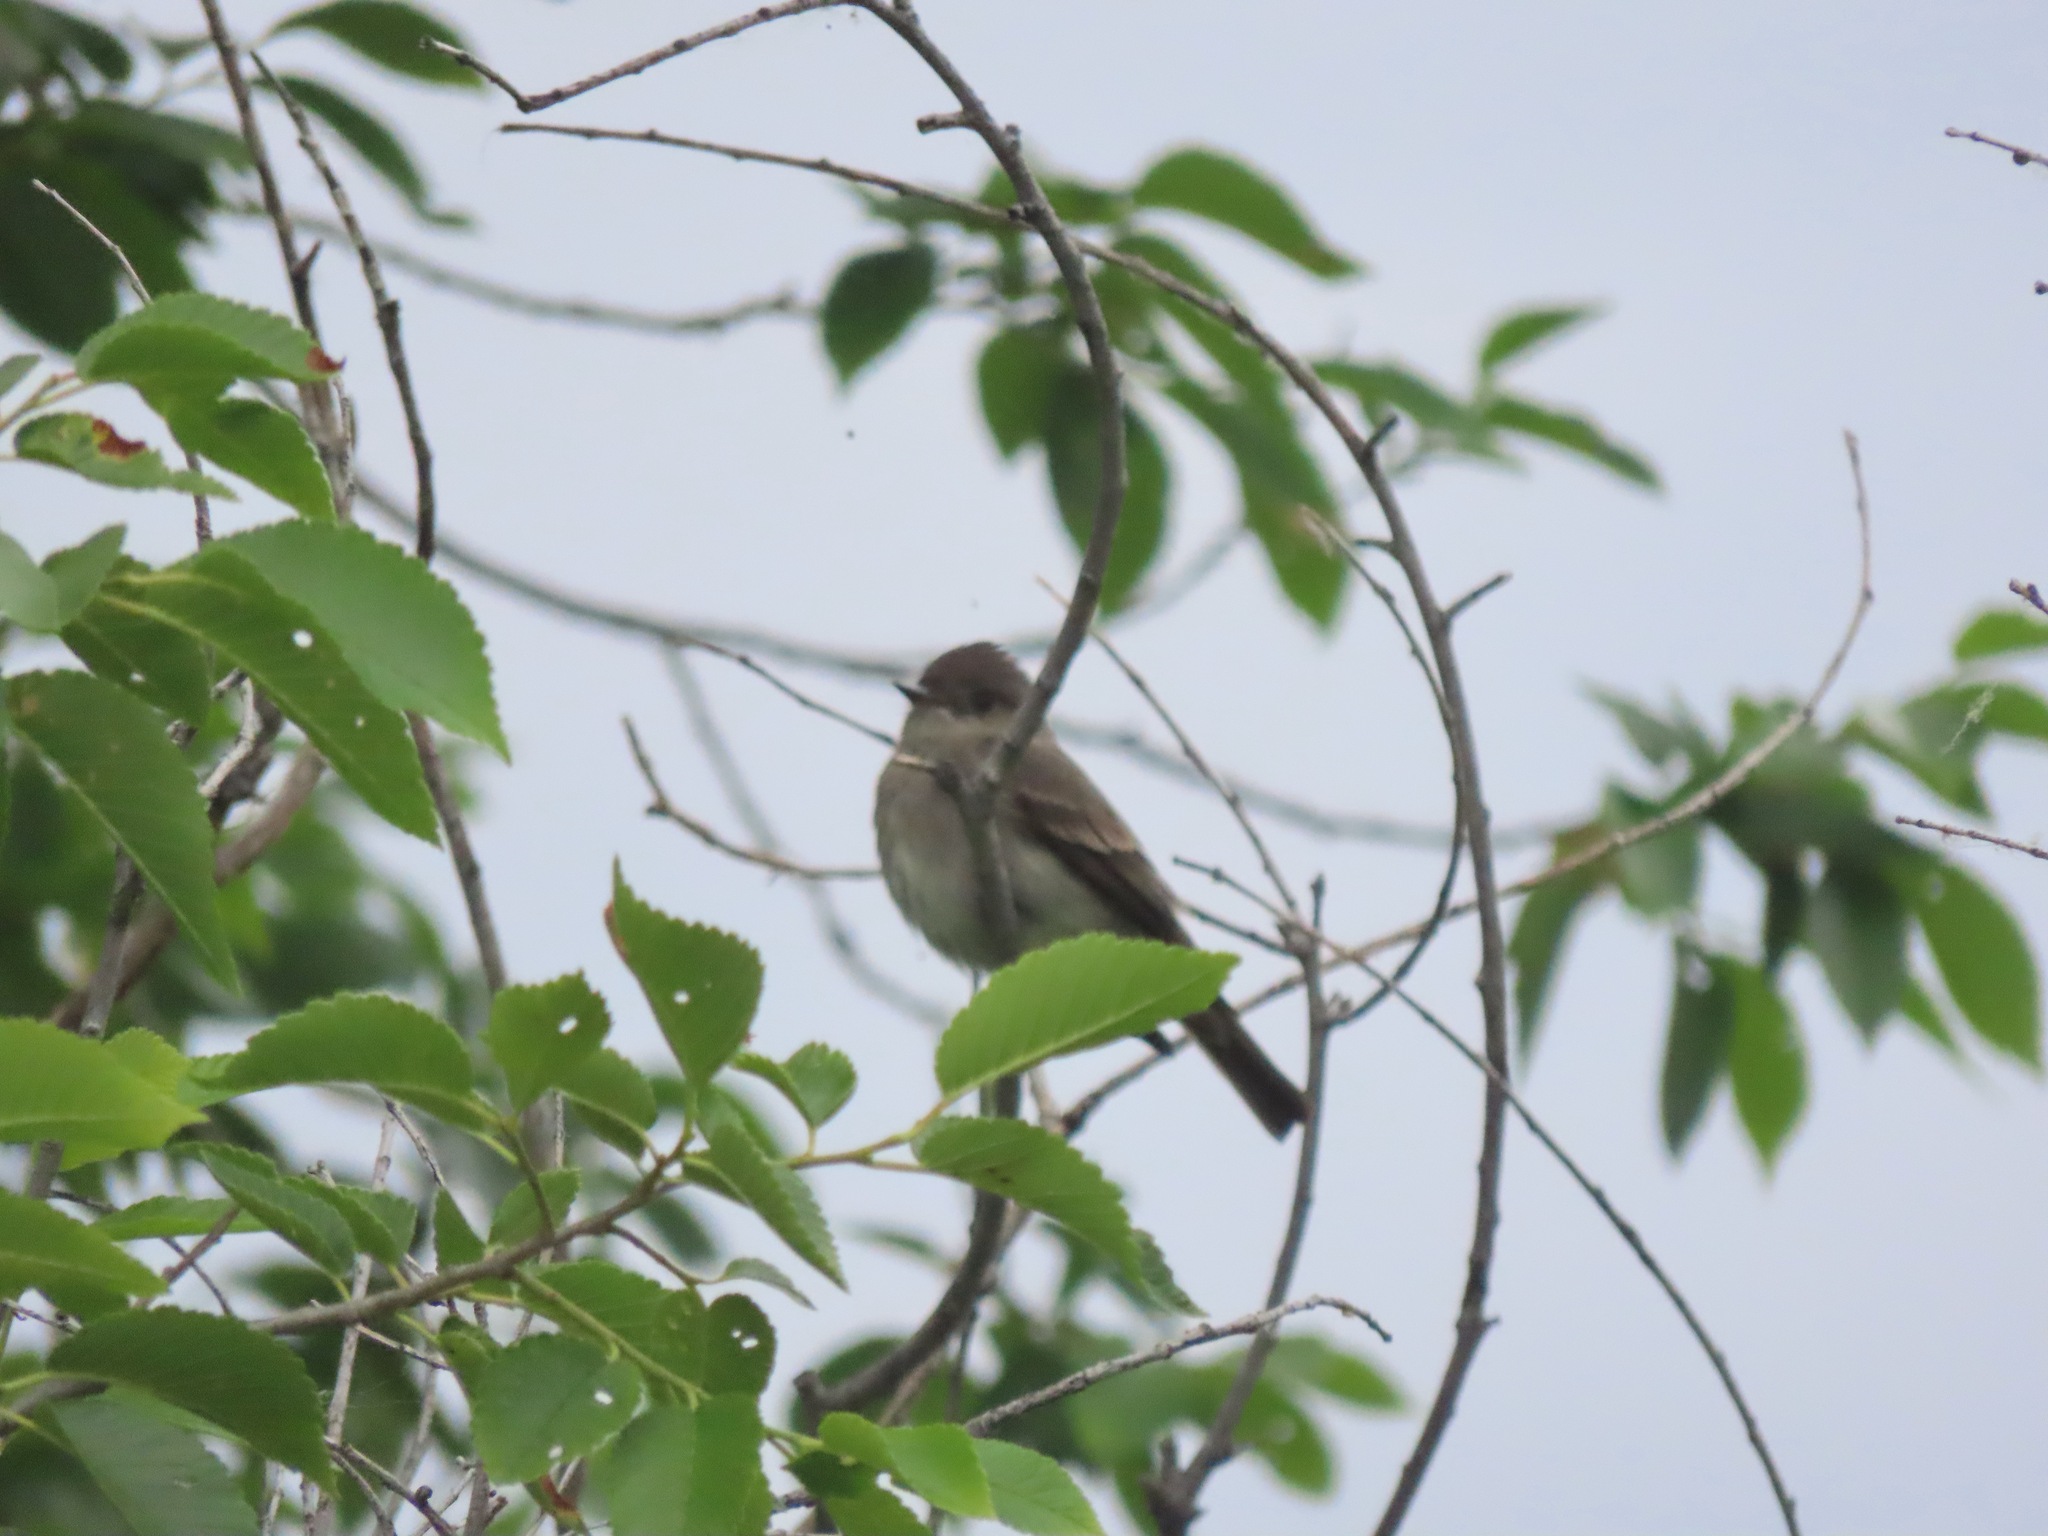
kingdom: Animalia
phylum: Chordata
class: Aves
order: Passeriformes
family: Tyrannidae
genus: Contopus
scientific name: Contopus sordidulus
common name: Western wood-pewee
